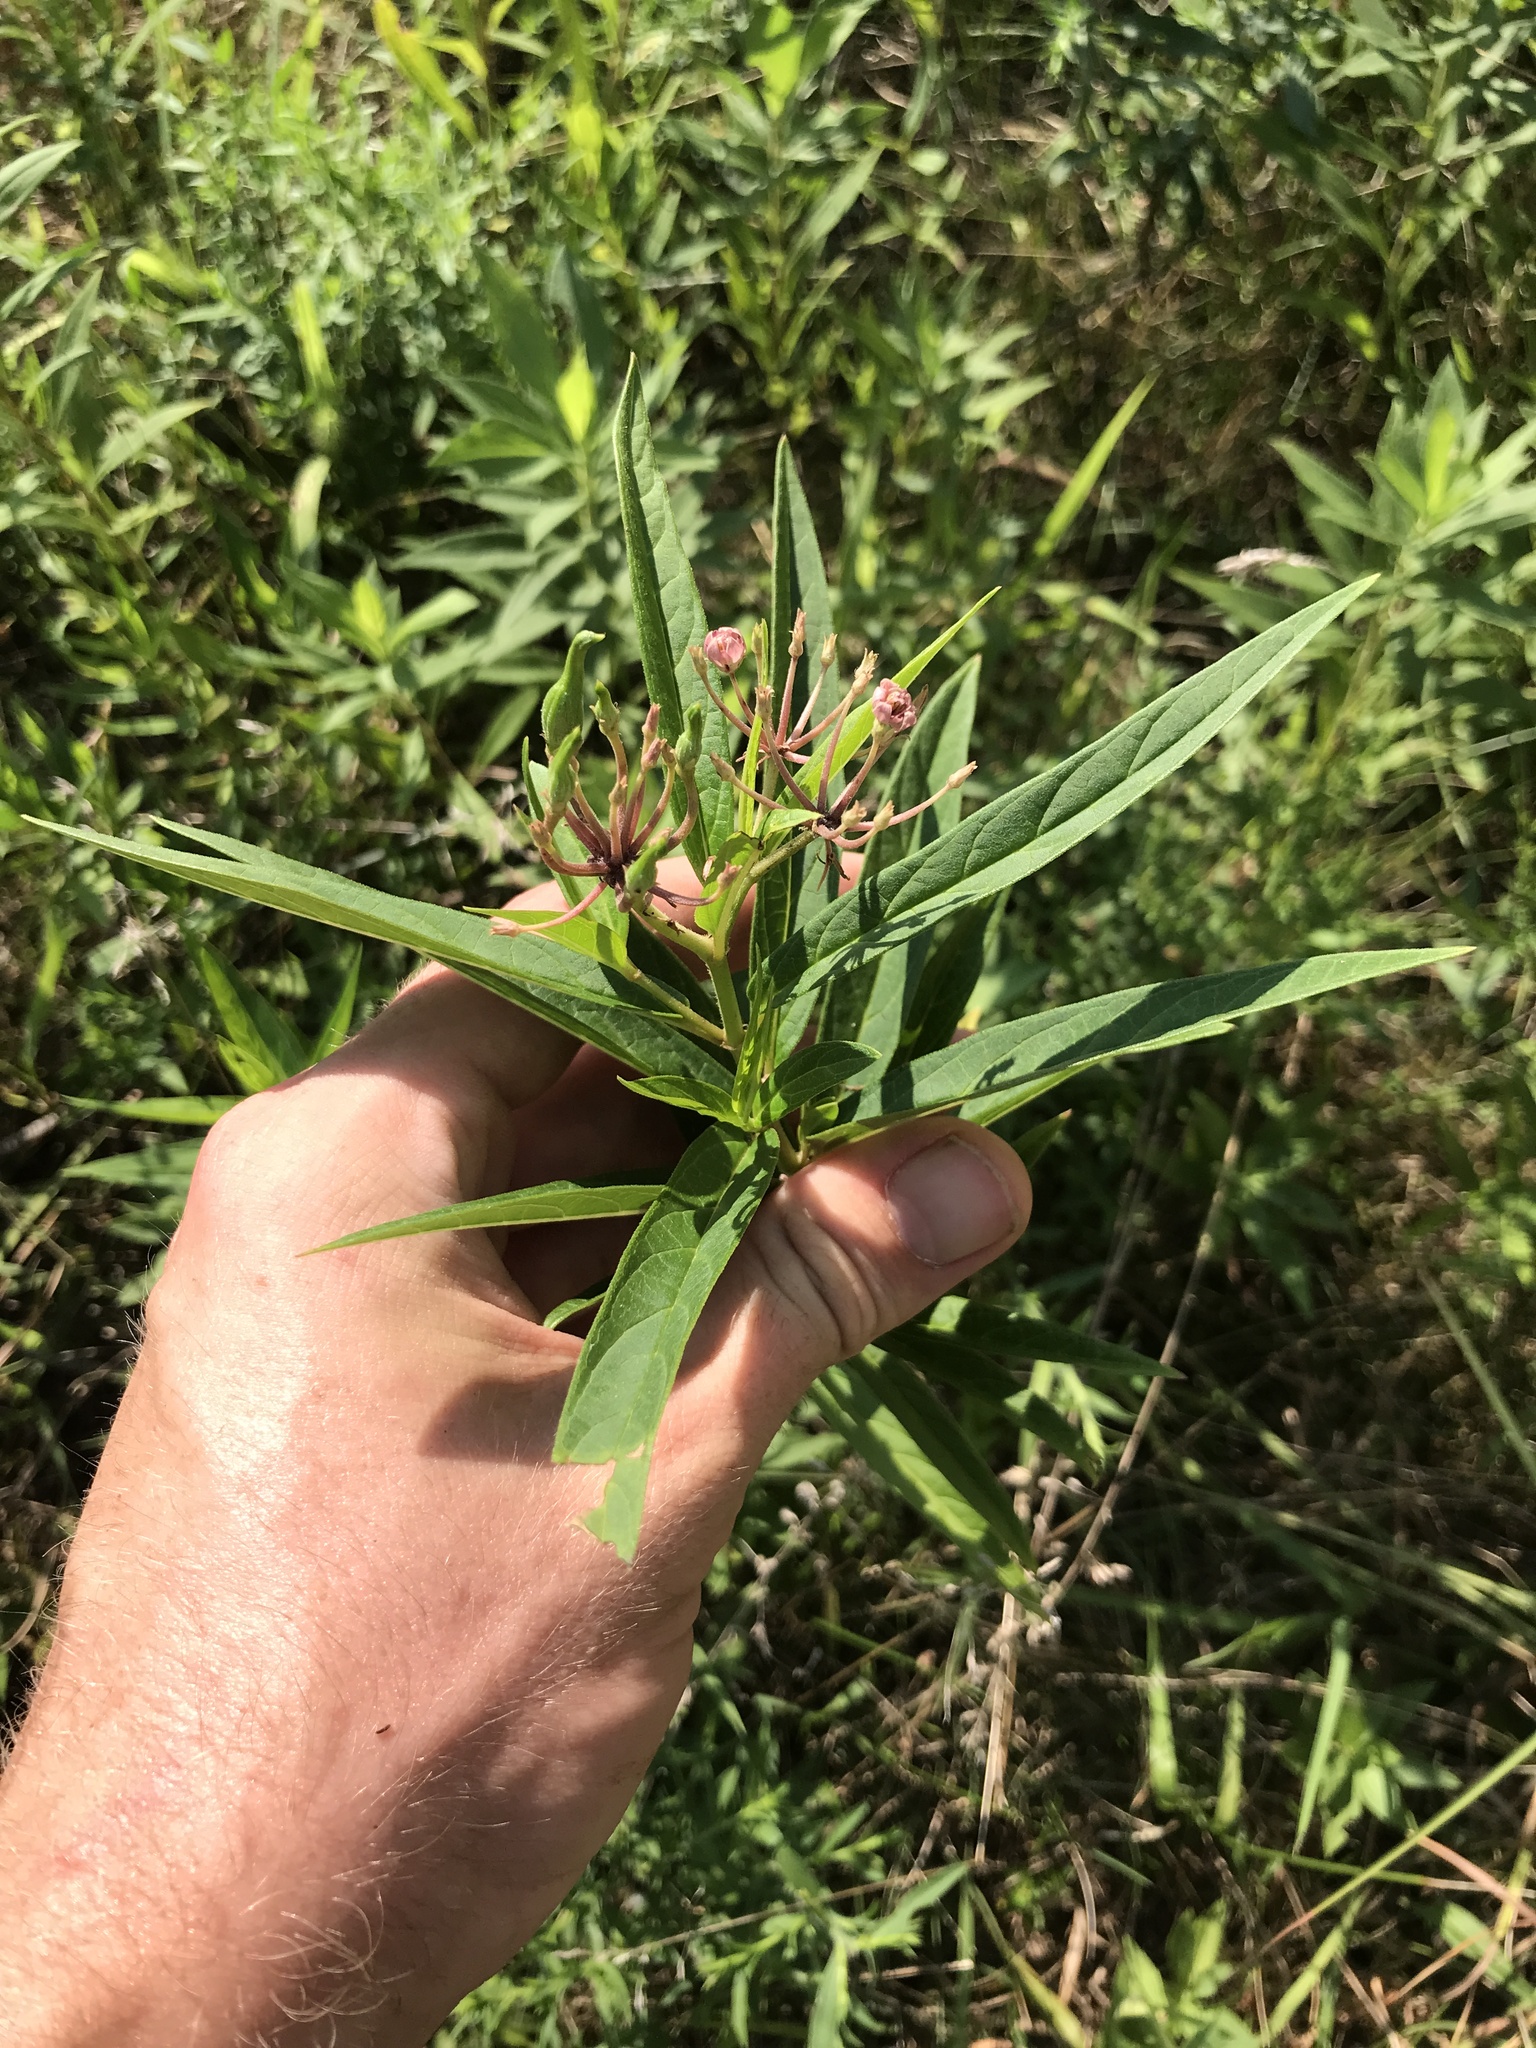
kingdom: Plantae
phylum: Tracheophyta
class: Magnoliopsida
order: Gentianales
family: Apocynaceae
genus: Asclepias
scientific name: Asclepias incarnata
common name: Swamp milkweed
